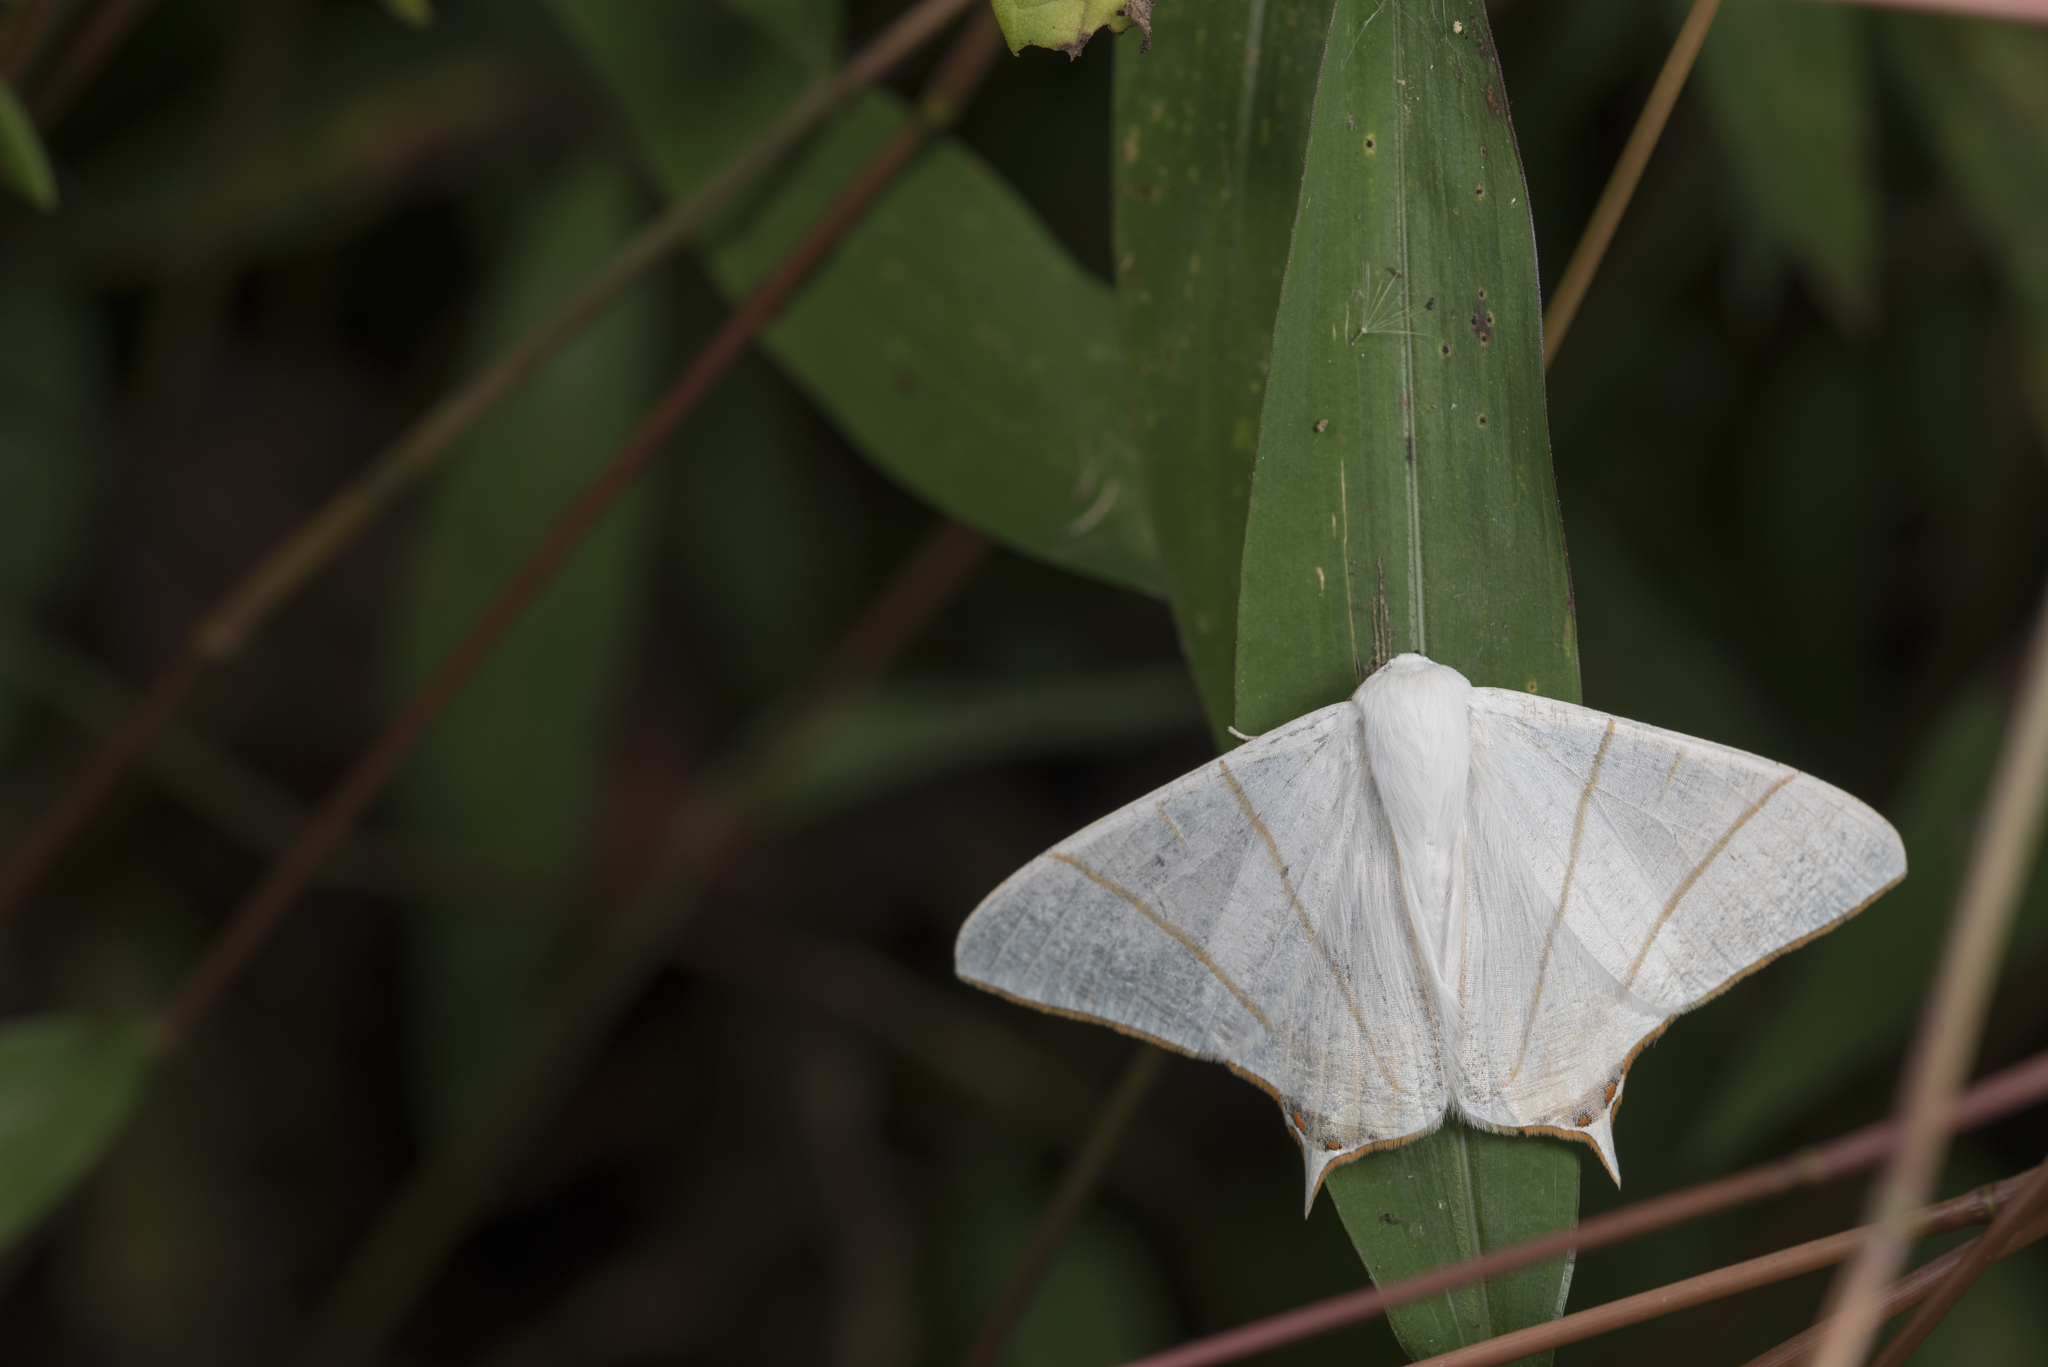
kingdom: Animalia
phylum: Arthropoda
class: Insecta
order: Lepidoptera
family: Geometridae
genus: Ourapteryx
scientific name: Ourapteryx changi
